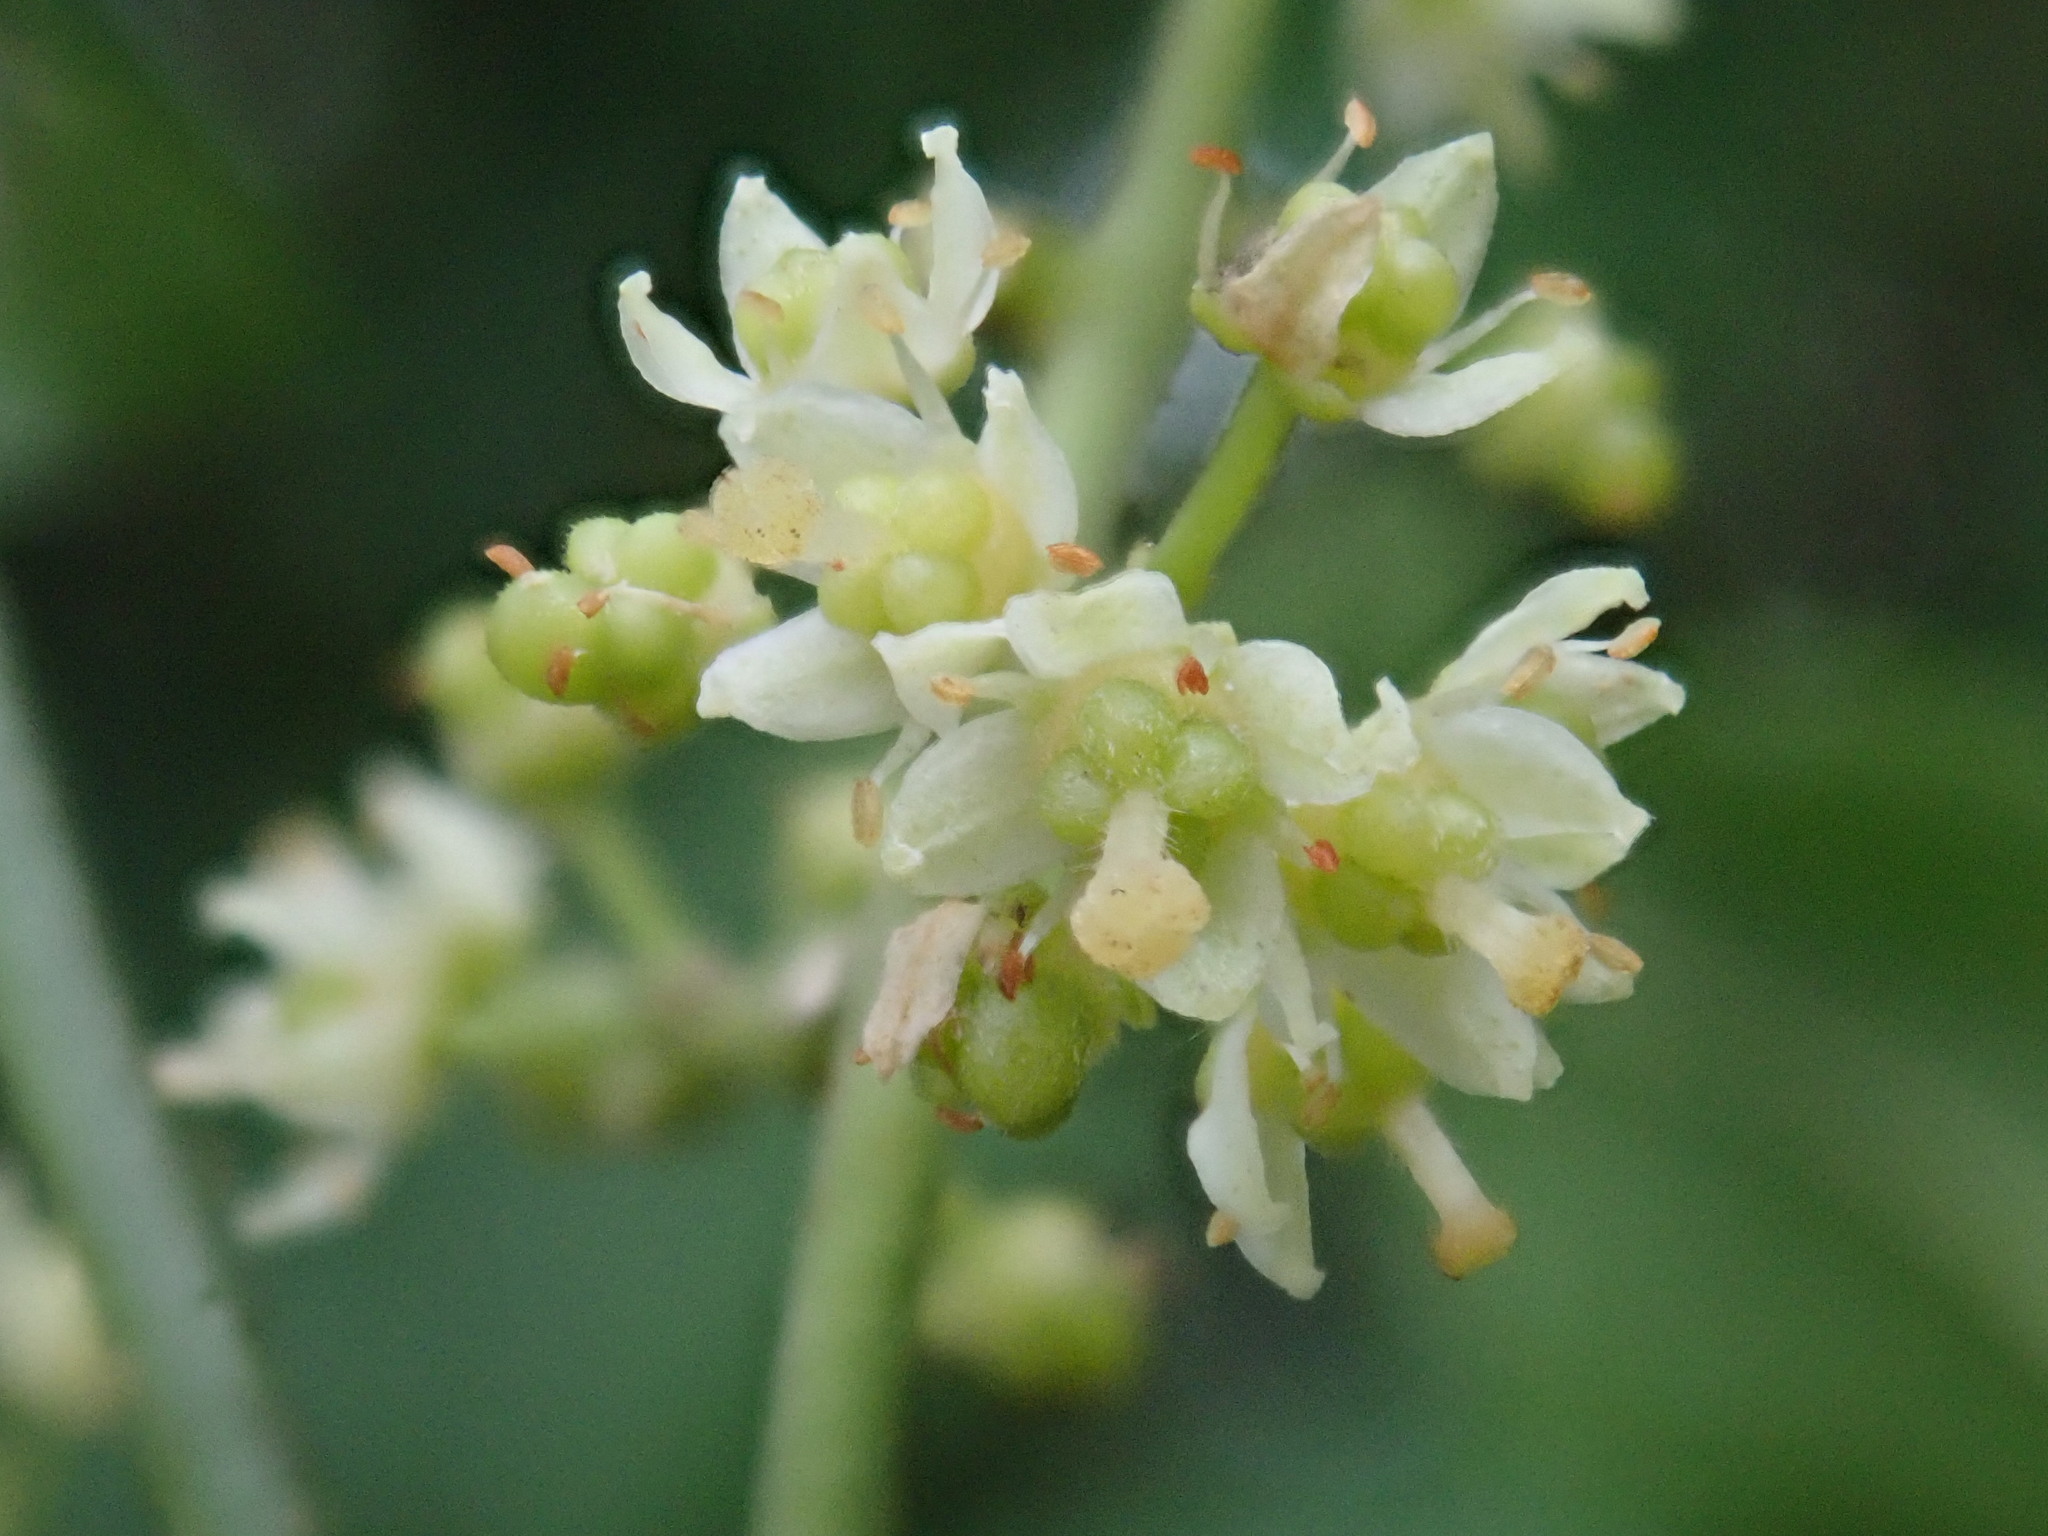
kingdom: Plantae
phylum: Tracheophyta
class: Magnoliopsida
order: Sapindales
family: Rutaceae
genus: Melicope
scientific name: Melicope semecarpifolia
